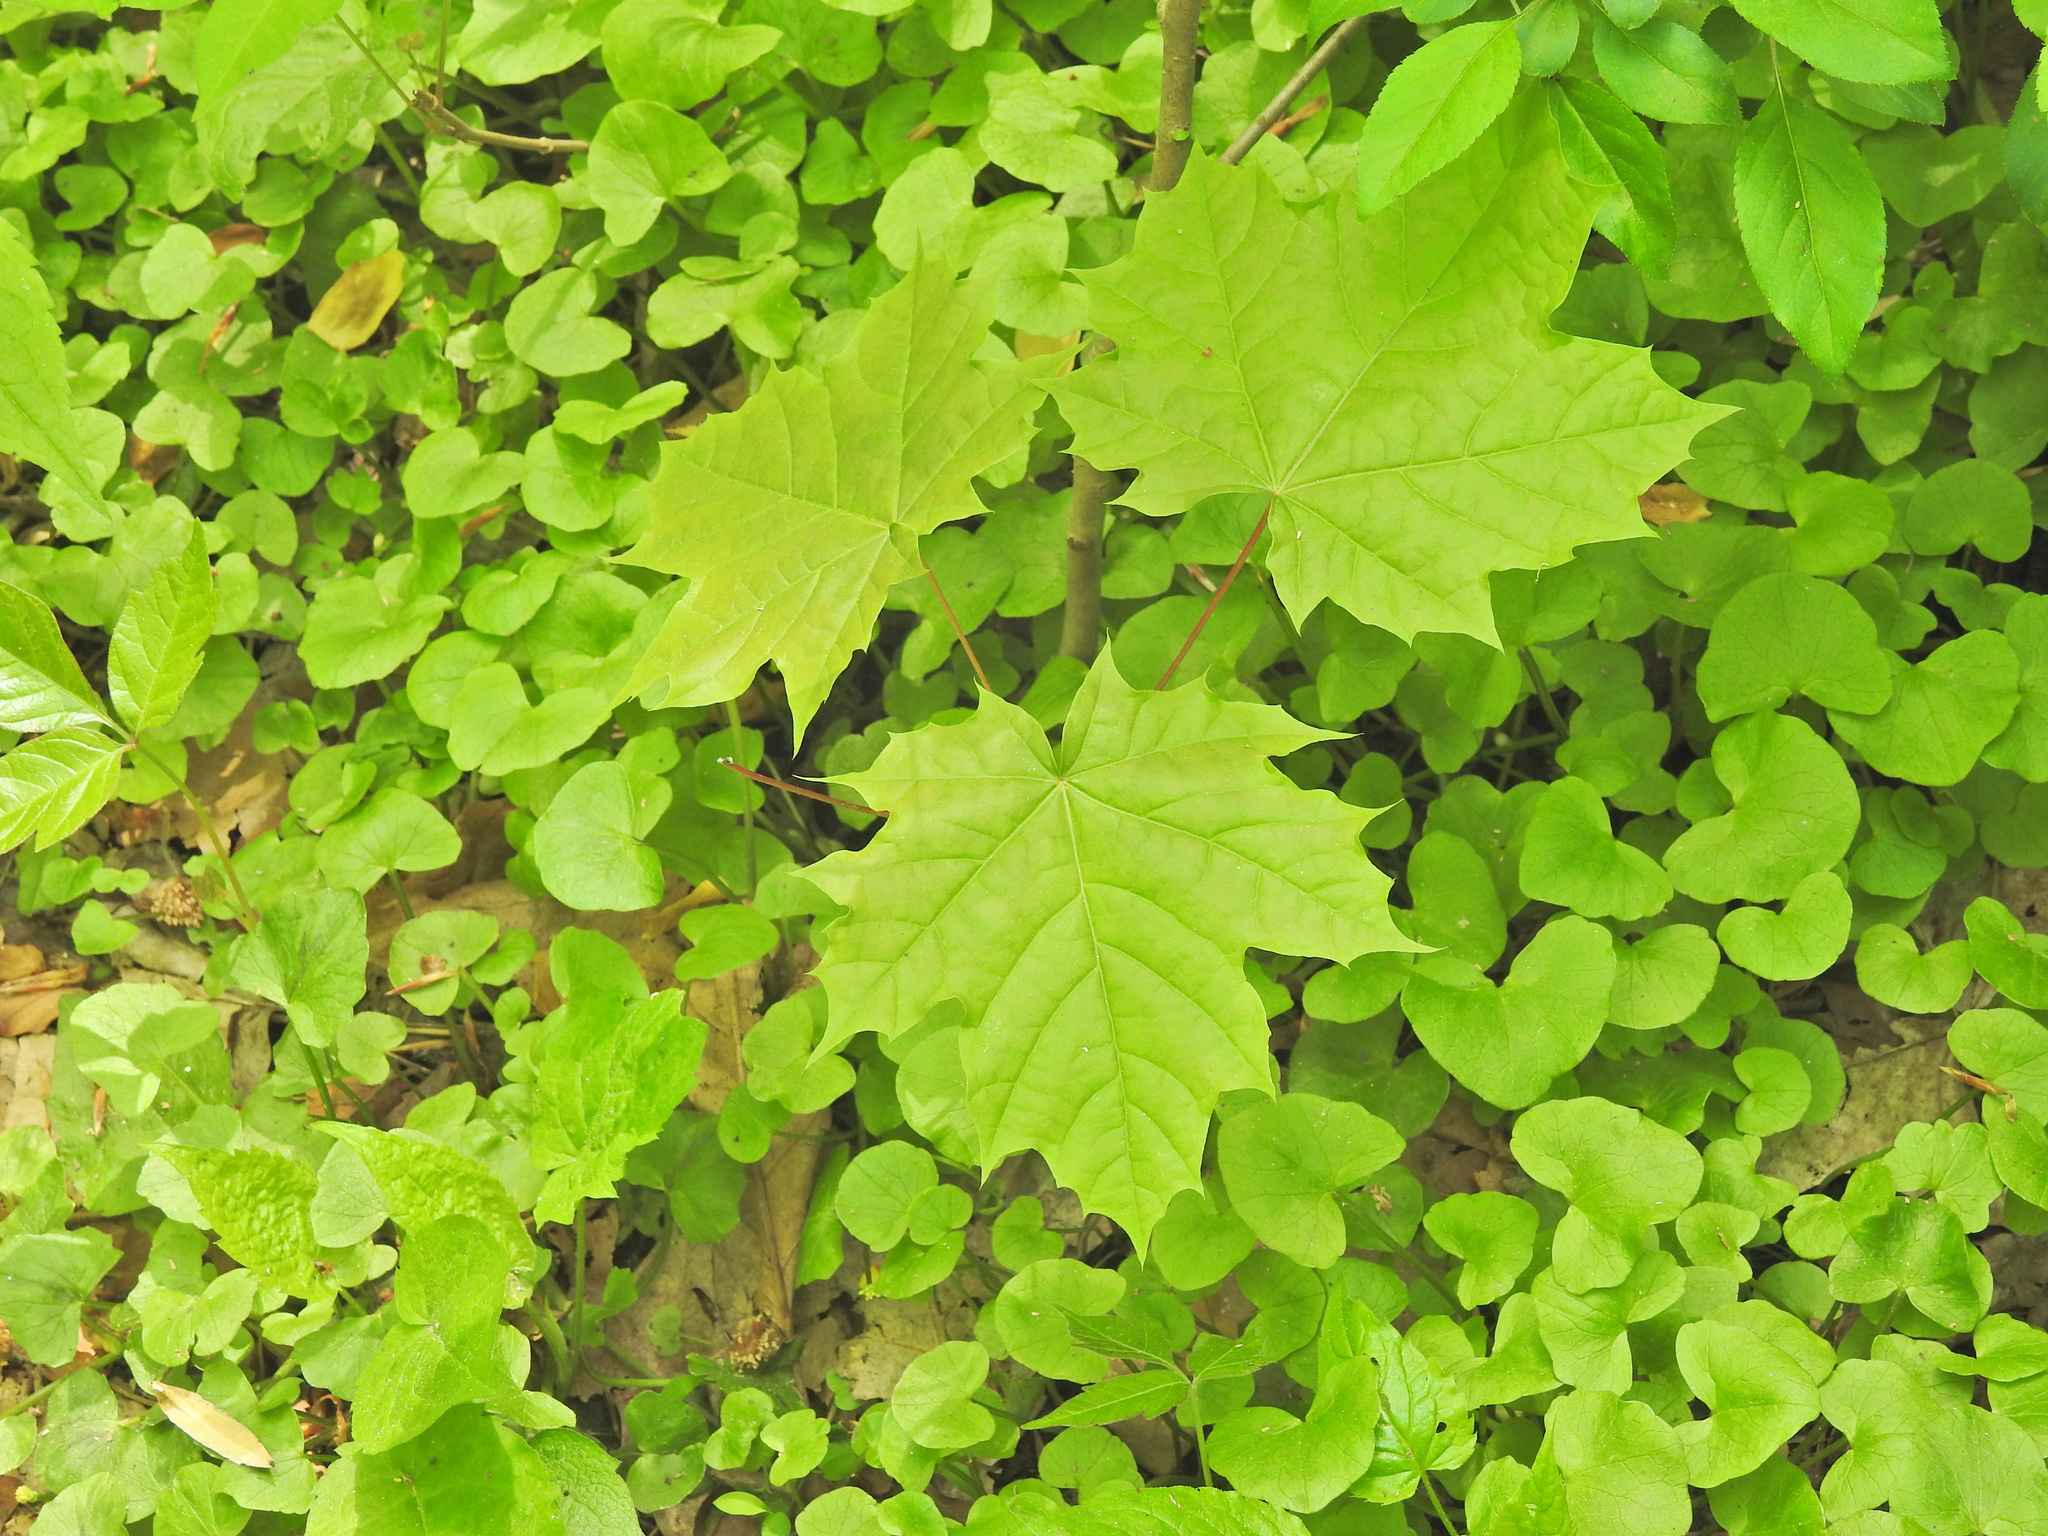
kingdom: Plantae
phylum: Tracheophyta
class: Magnoliopsida
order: Sapindales
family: Sapindaceae
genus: Acer
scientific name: Acer platanoides
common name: Norway maple
